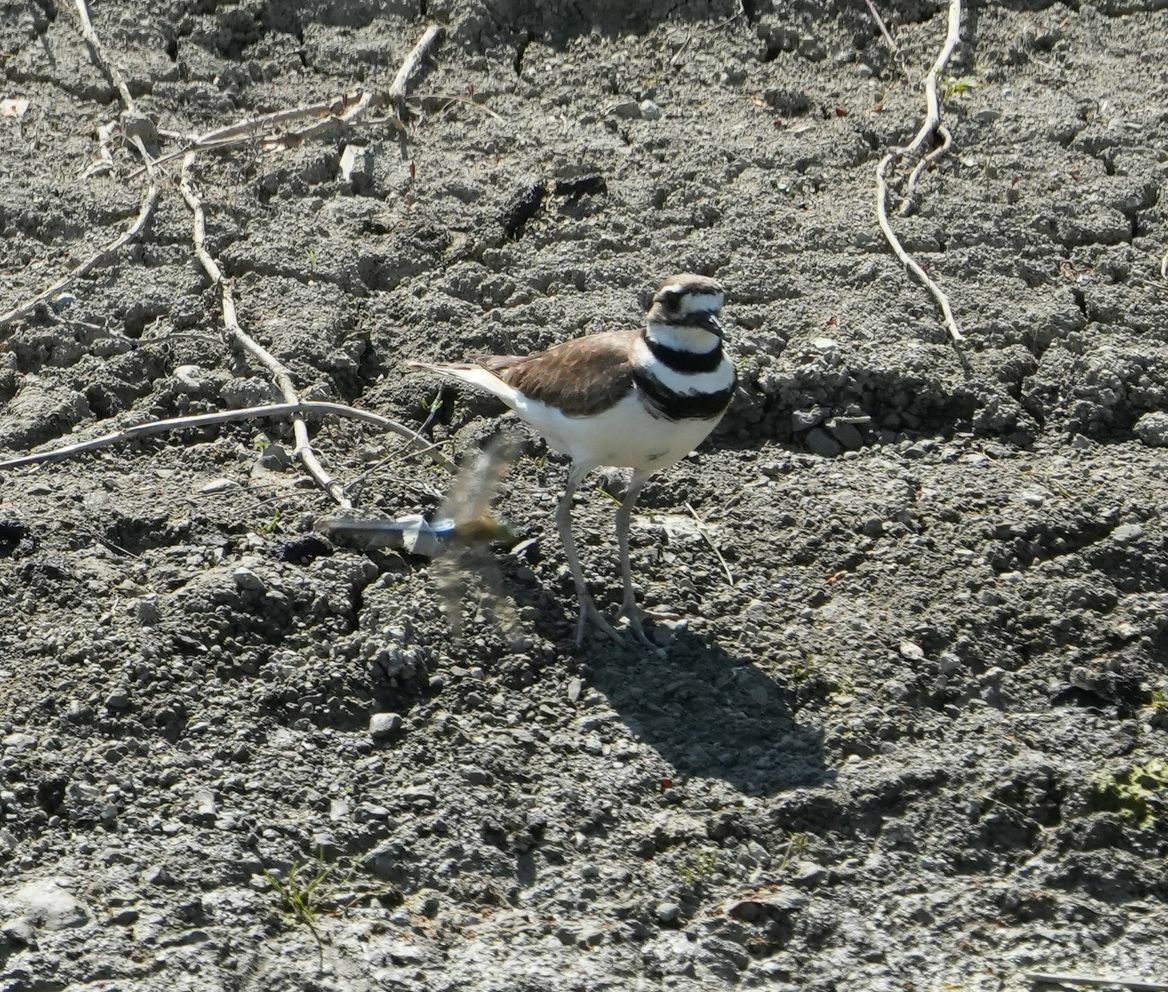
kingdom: Animalia
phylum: Chordata
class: Aves
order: Charadriiformes
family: Charadriidae
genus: Charadrius
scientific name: Charadrius vociferus
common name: Killdeer
